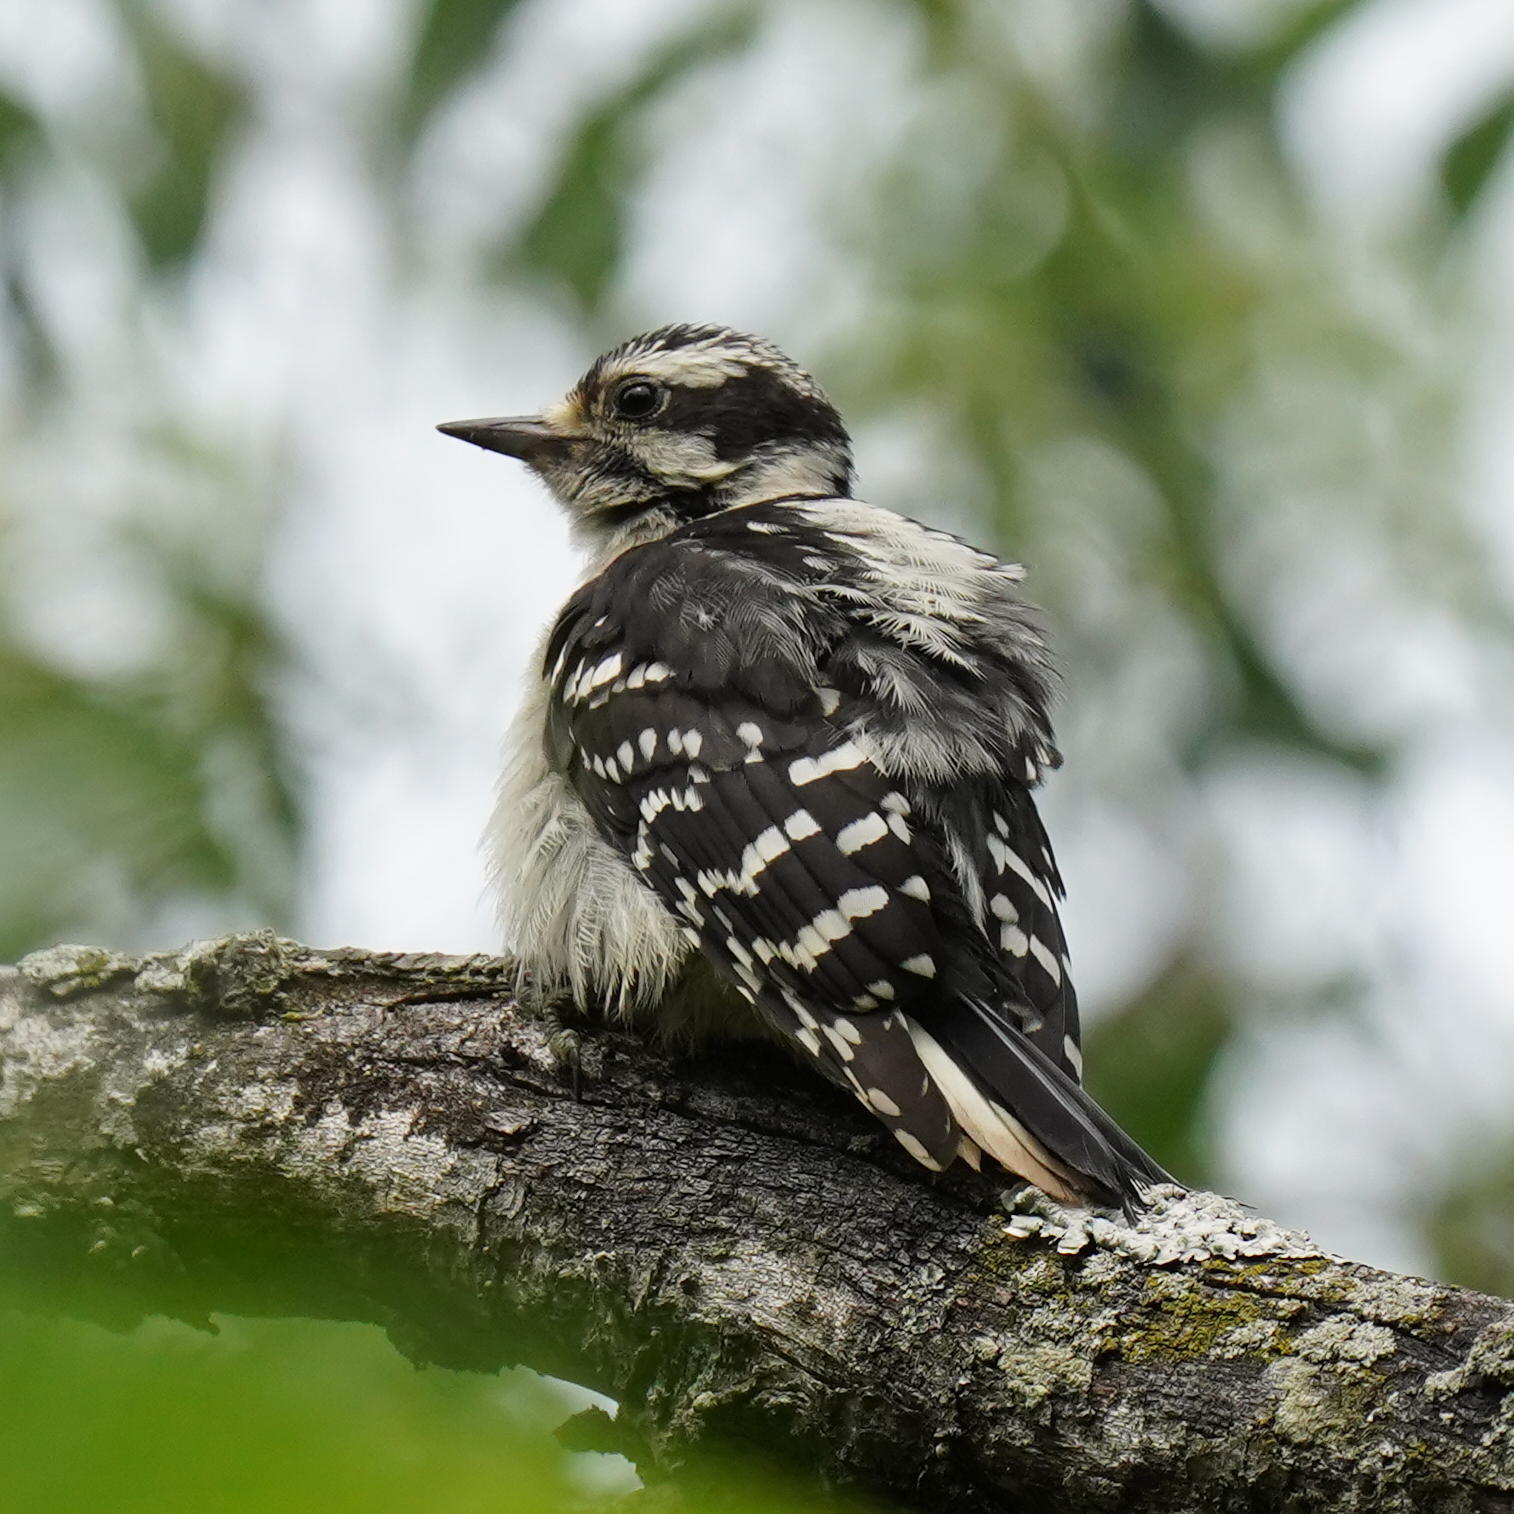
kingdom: Animalia
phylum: Chordata
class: Aves
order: Piciformes
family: Picidae
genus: Dryobates
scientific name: Dryobates pubescens
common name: Downy woodpecker
